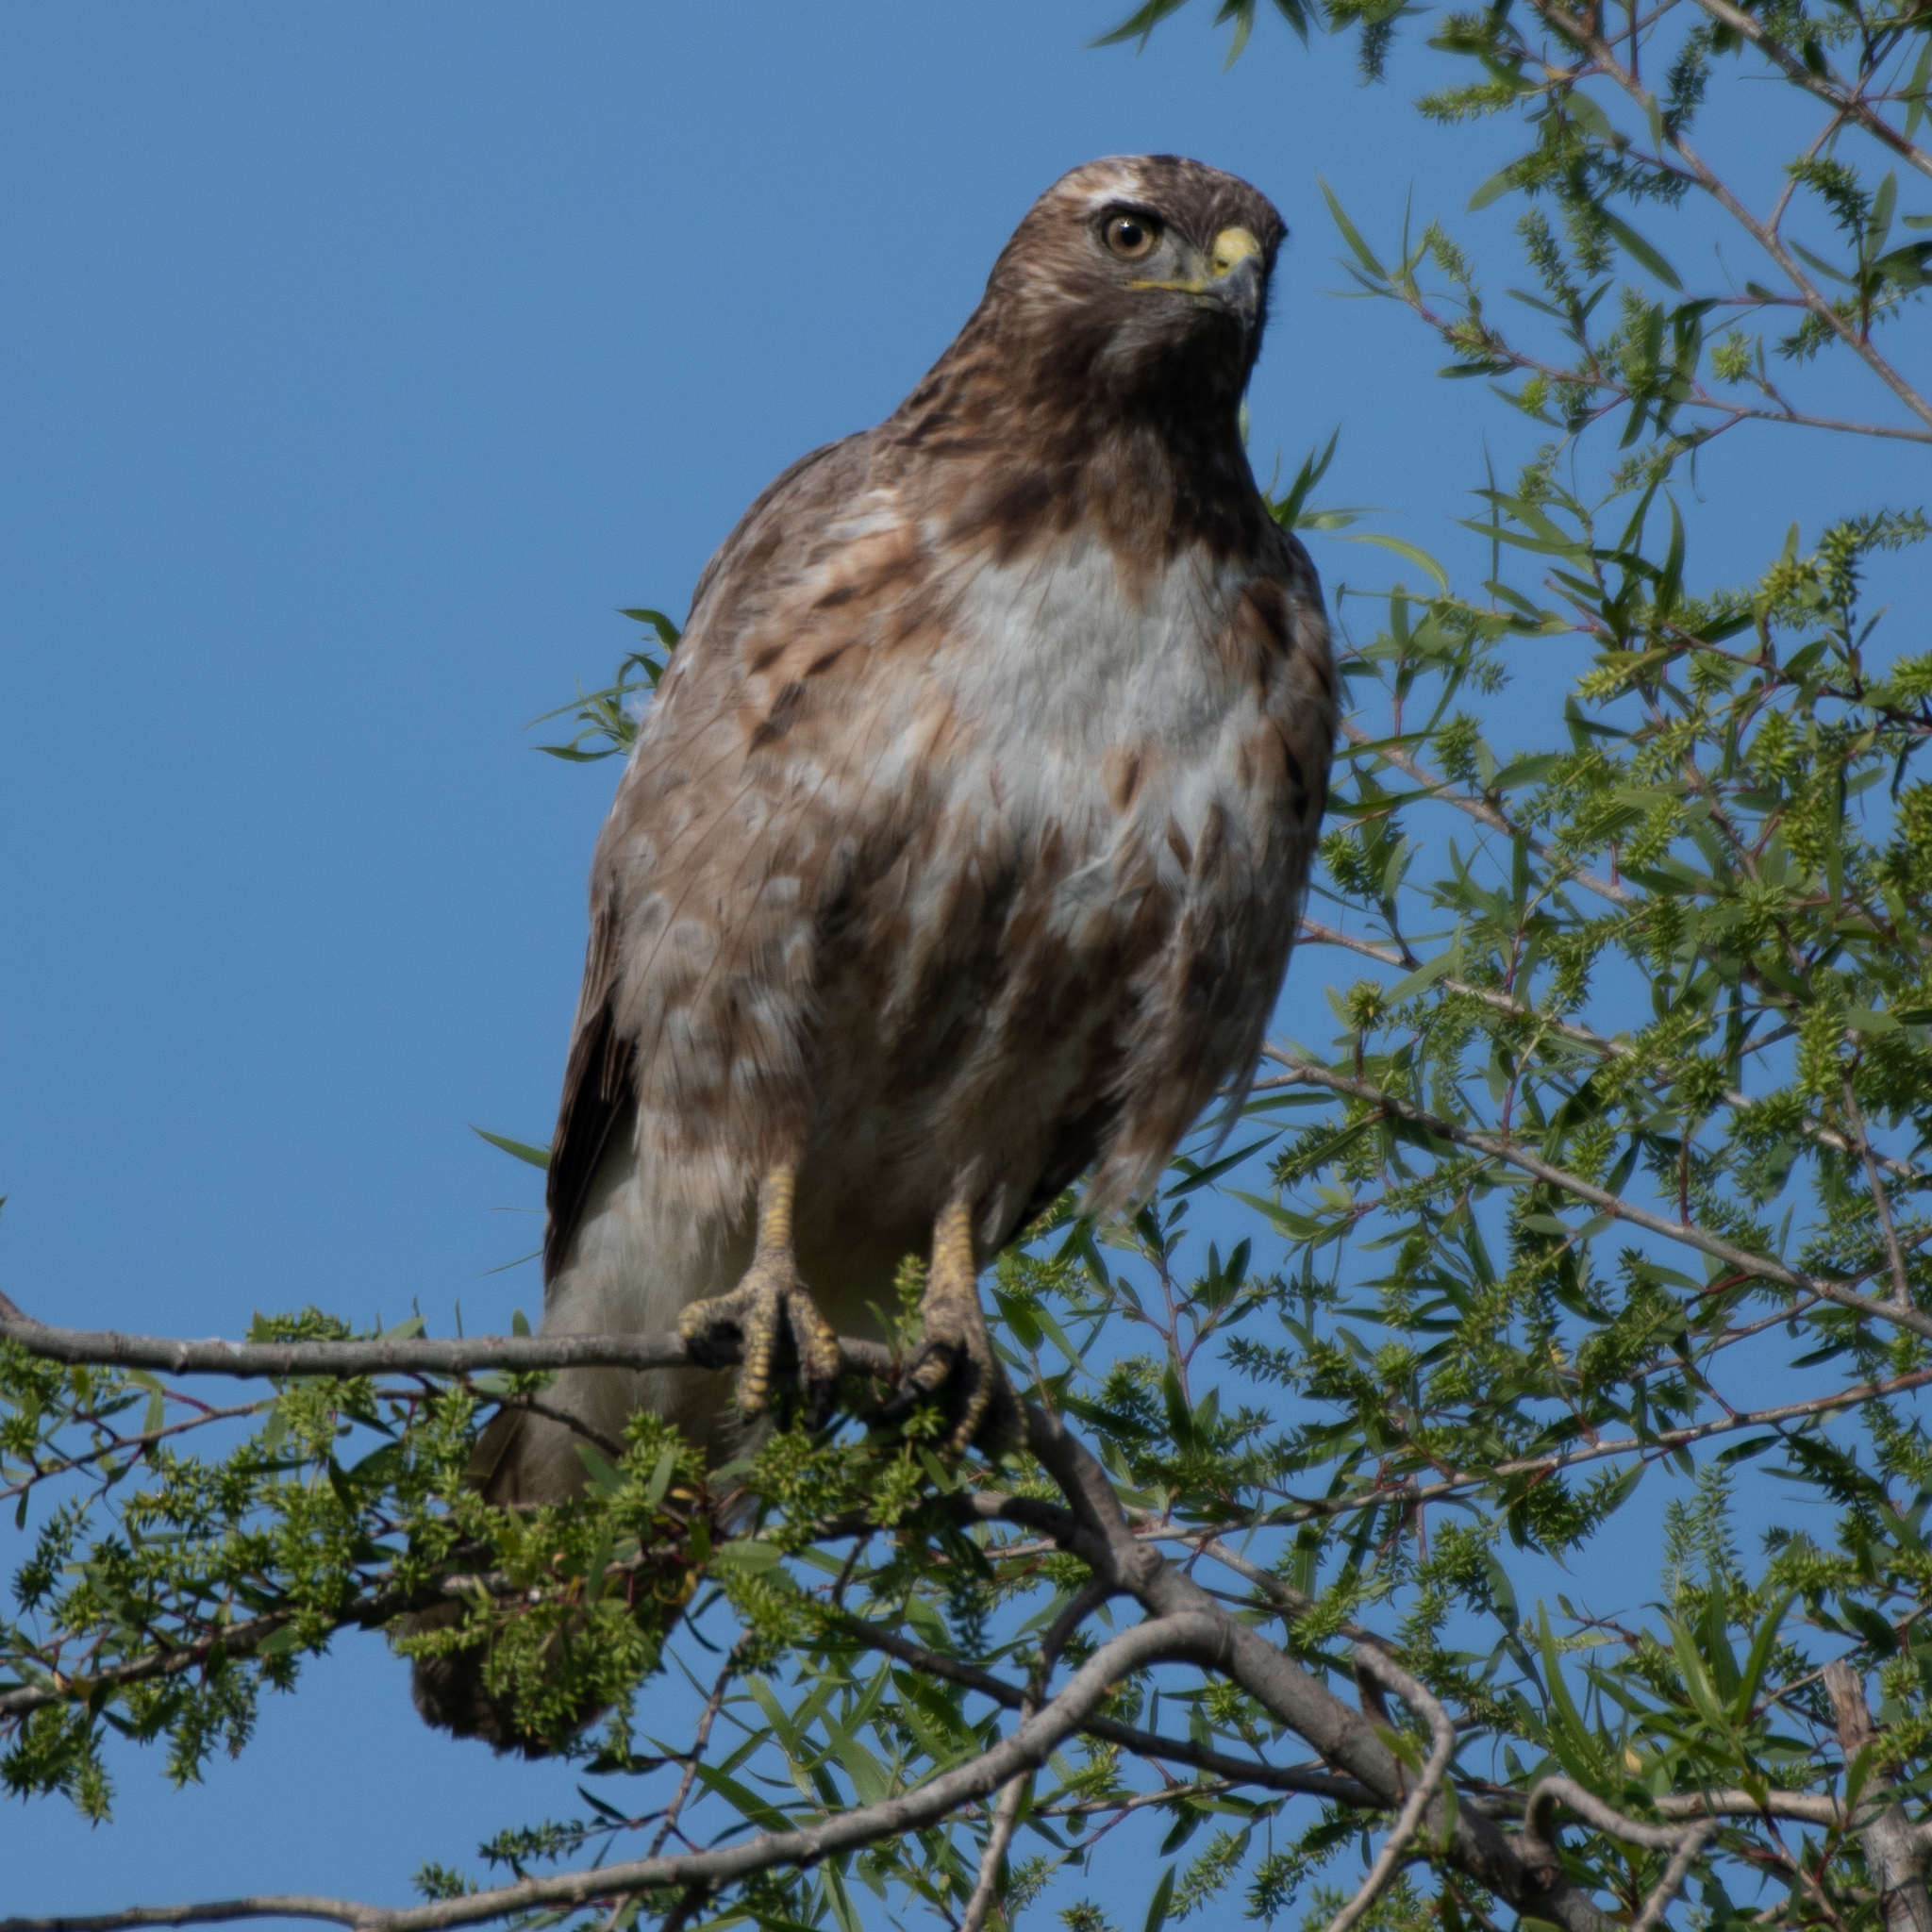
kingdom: Animalia
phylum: Chordata
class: Aves
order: Accipitriformes
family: Accipitridae
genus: Buteo
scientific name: Buteo jamaicensis
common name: Red-tailed hawk
